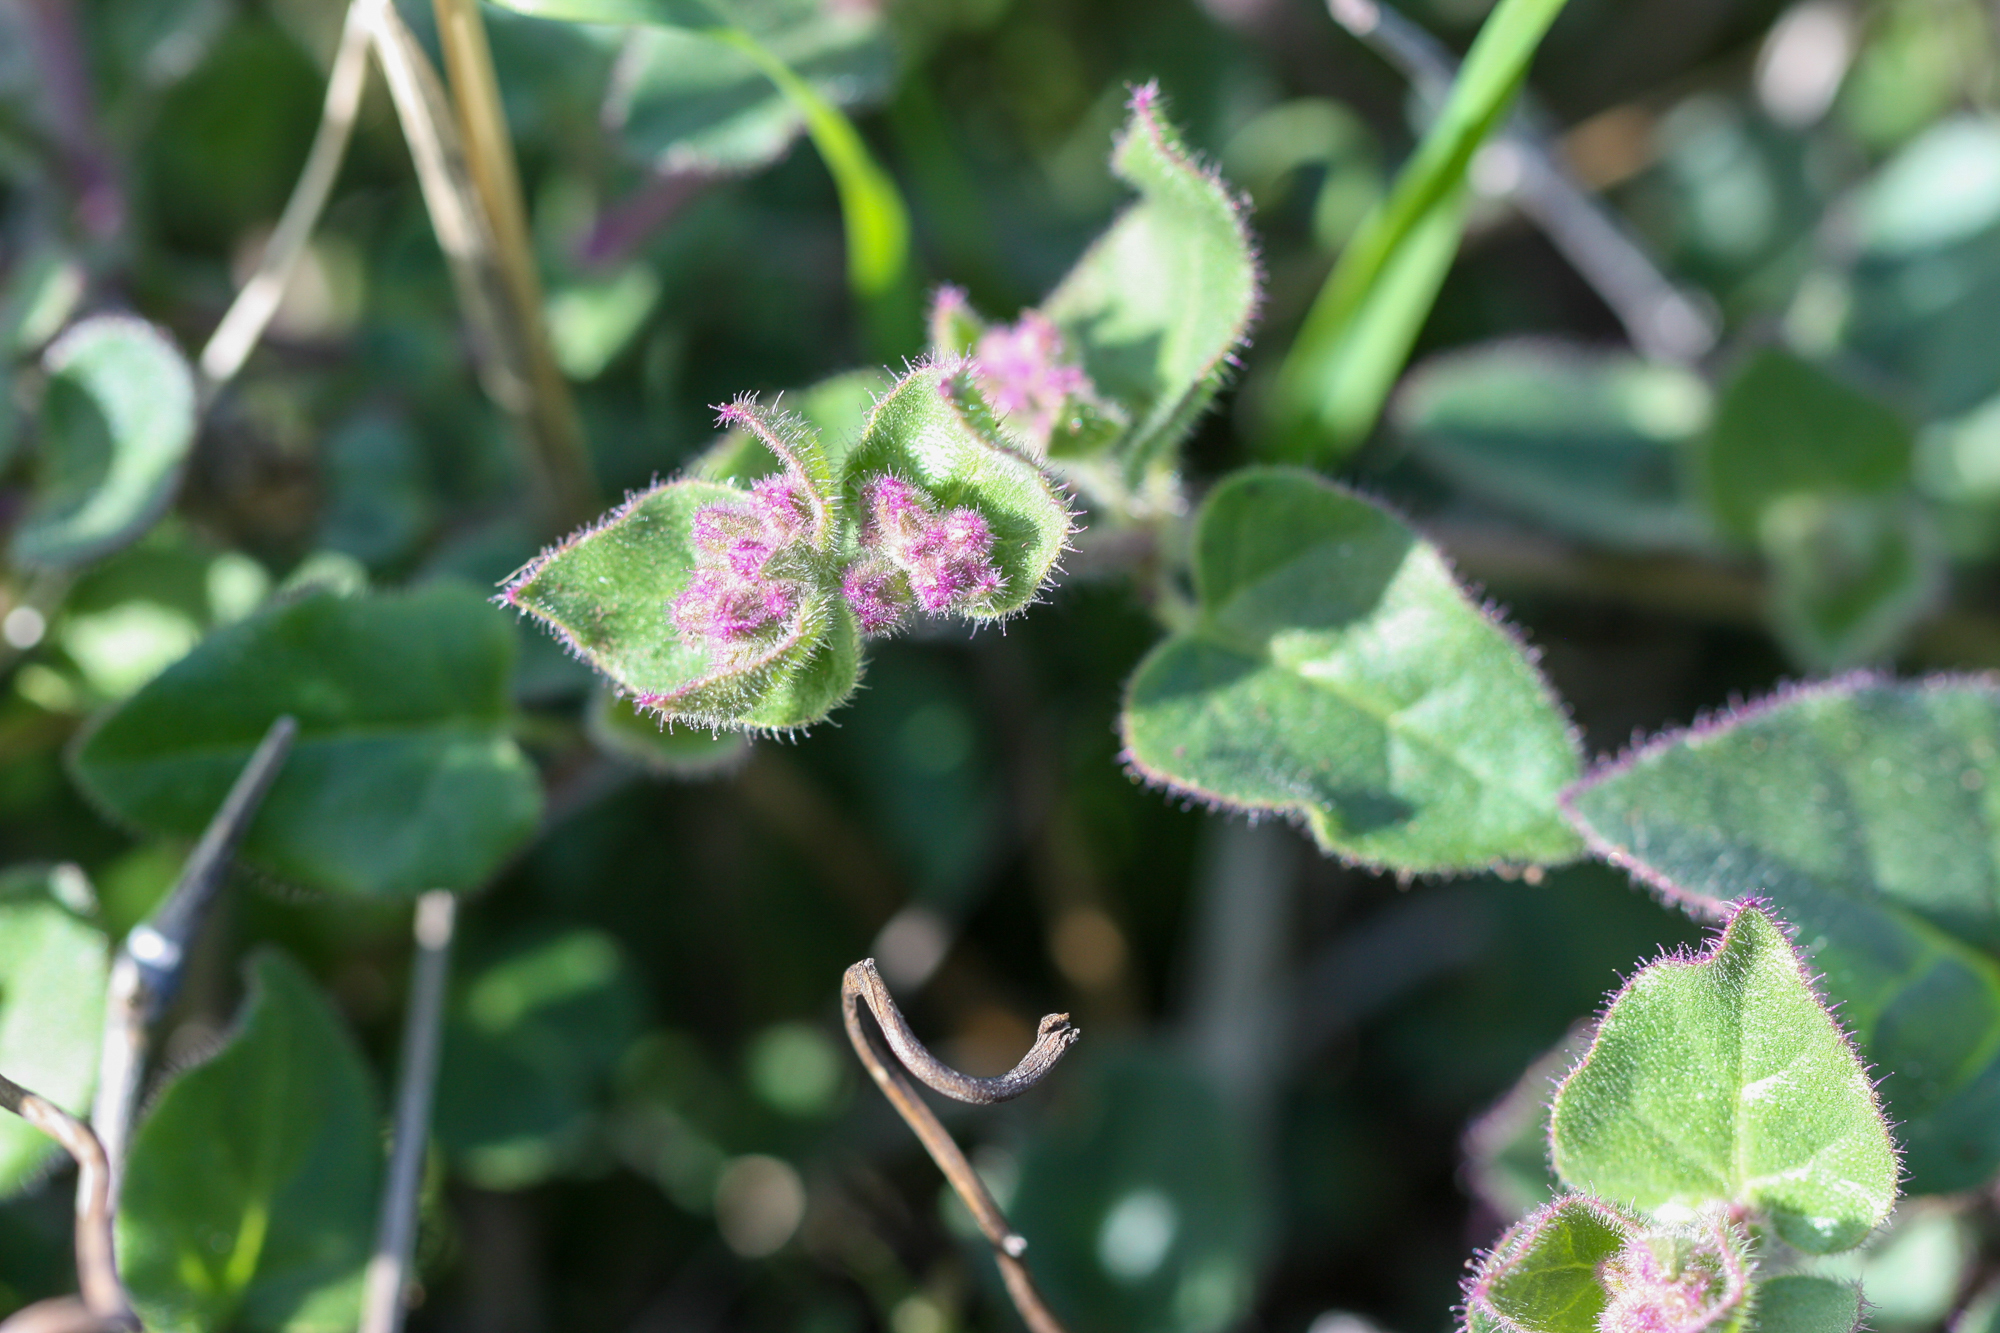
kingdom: Plantae
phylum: Tracheophyta
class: Magnoliopsida
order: Caryophyllales
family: Nyctaginaceae
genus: Mirabilis
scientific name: Mirabilis laevis
